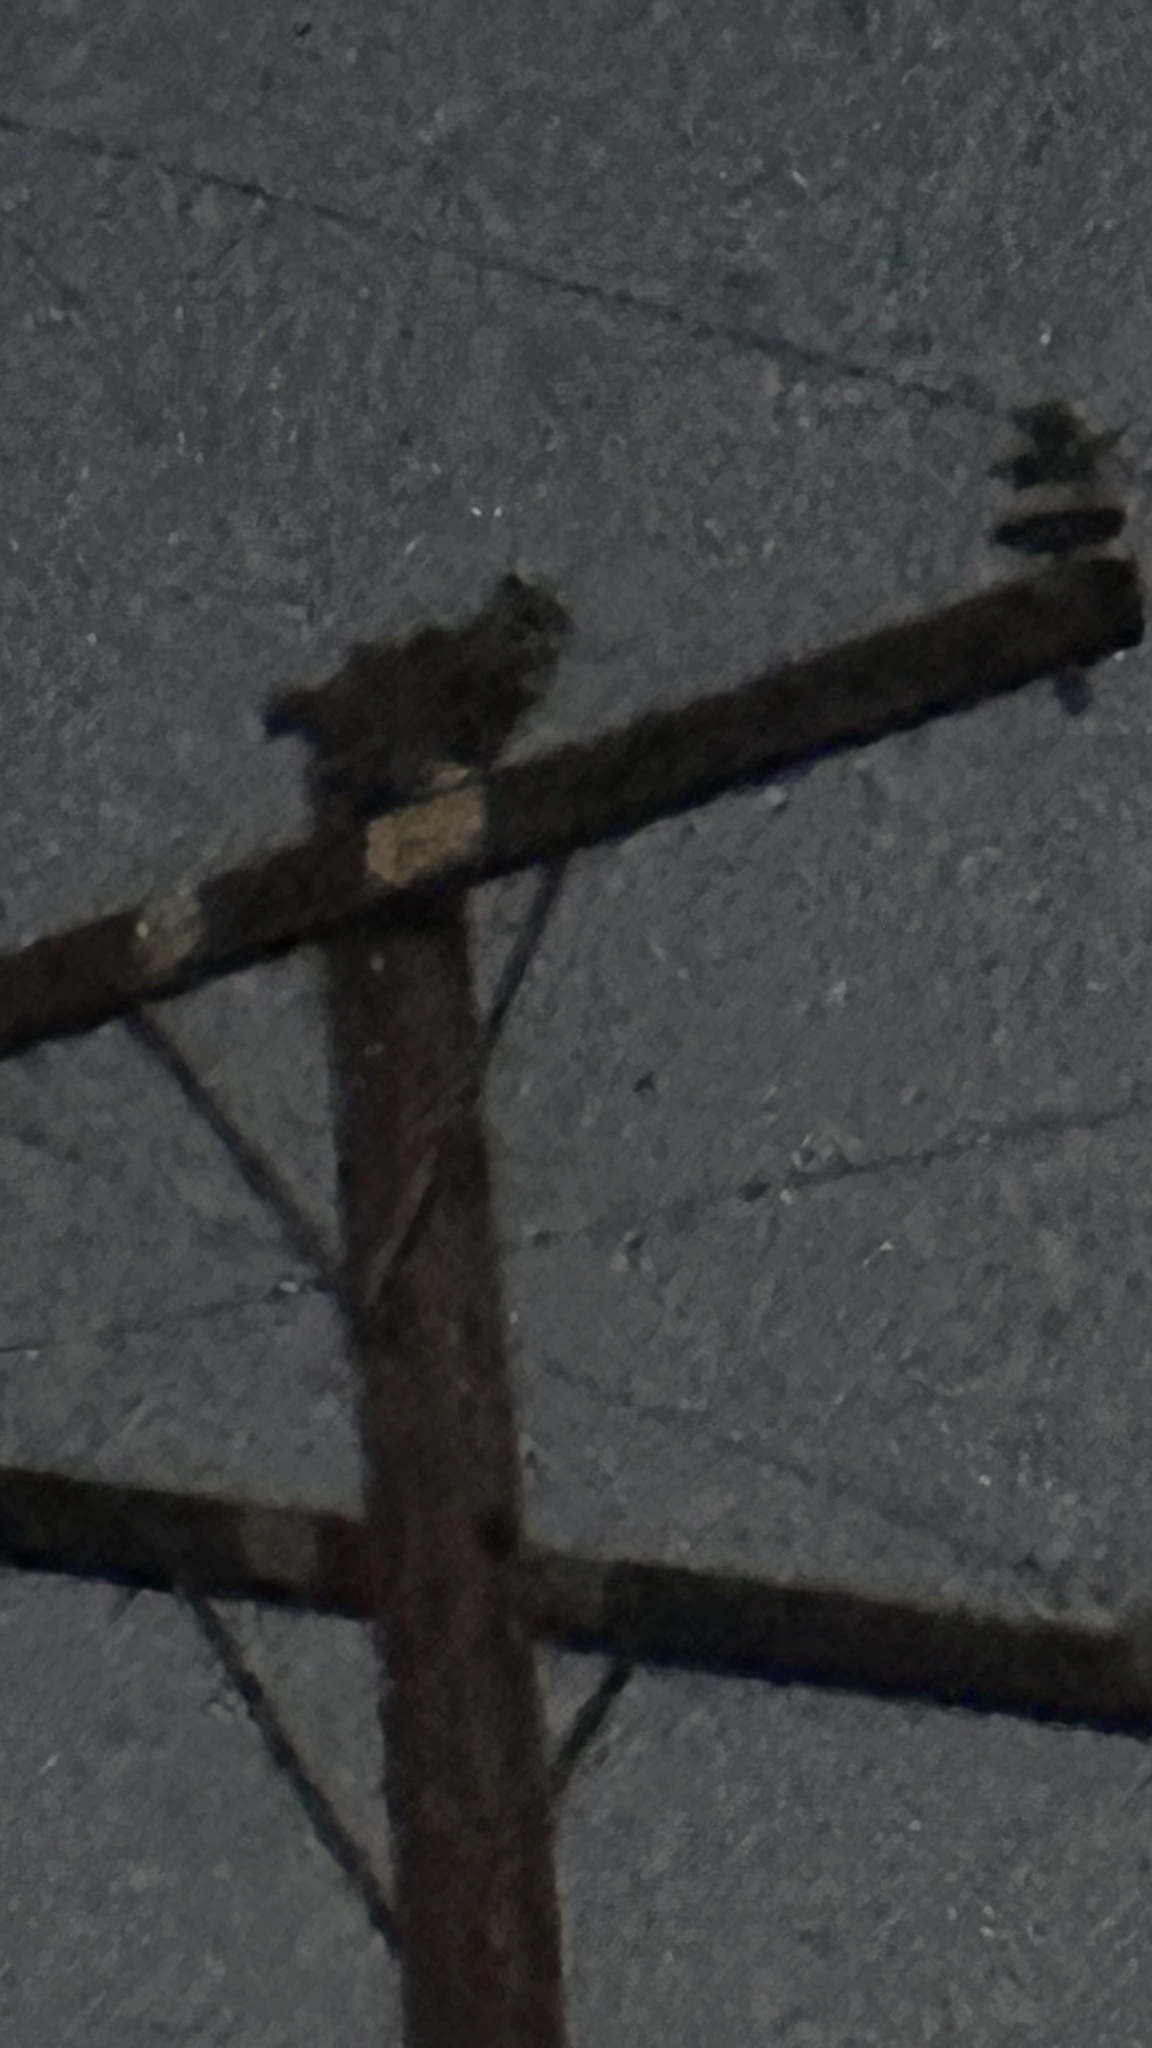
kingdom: Animalia
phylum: Chordata
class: Aves
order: Strigiformes
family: Strigidae
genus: Bubo
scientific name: Bubo virginianus
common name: Great horned owl
